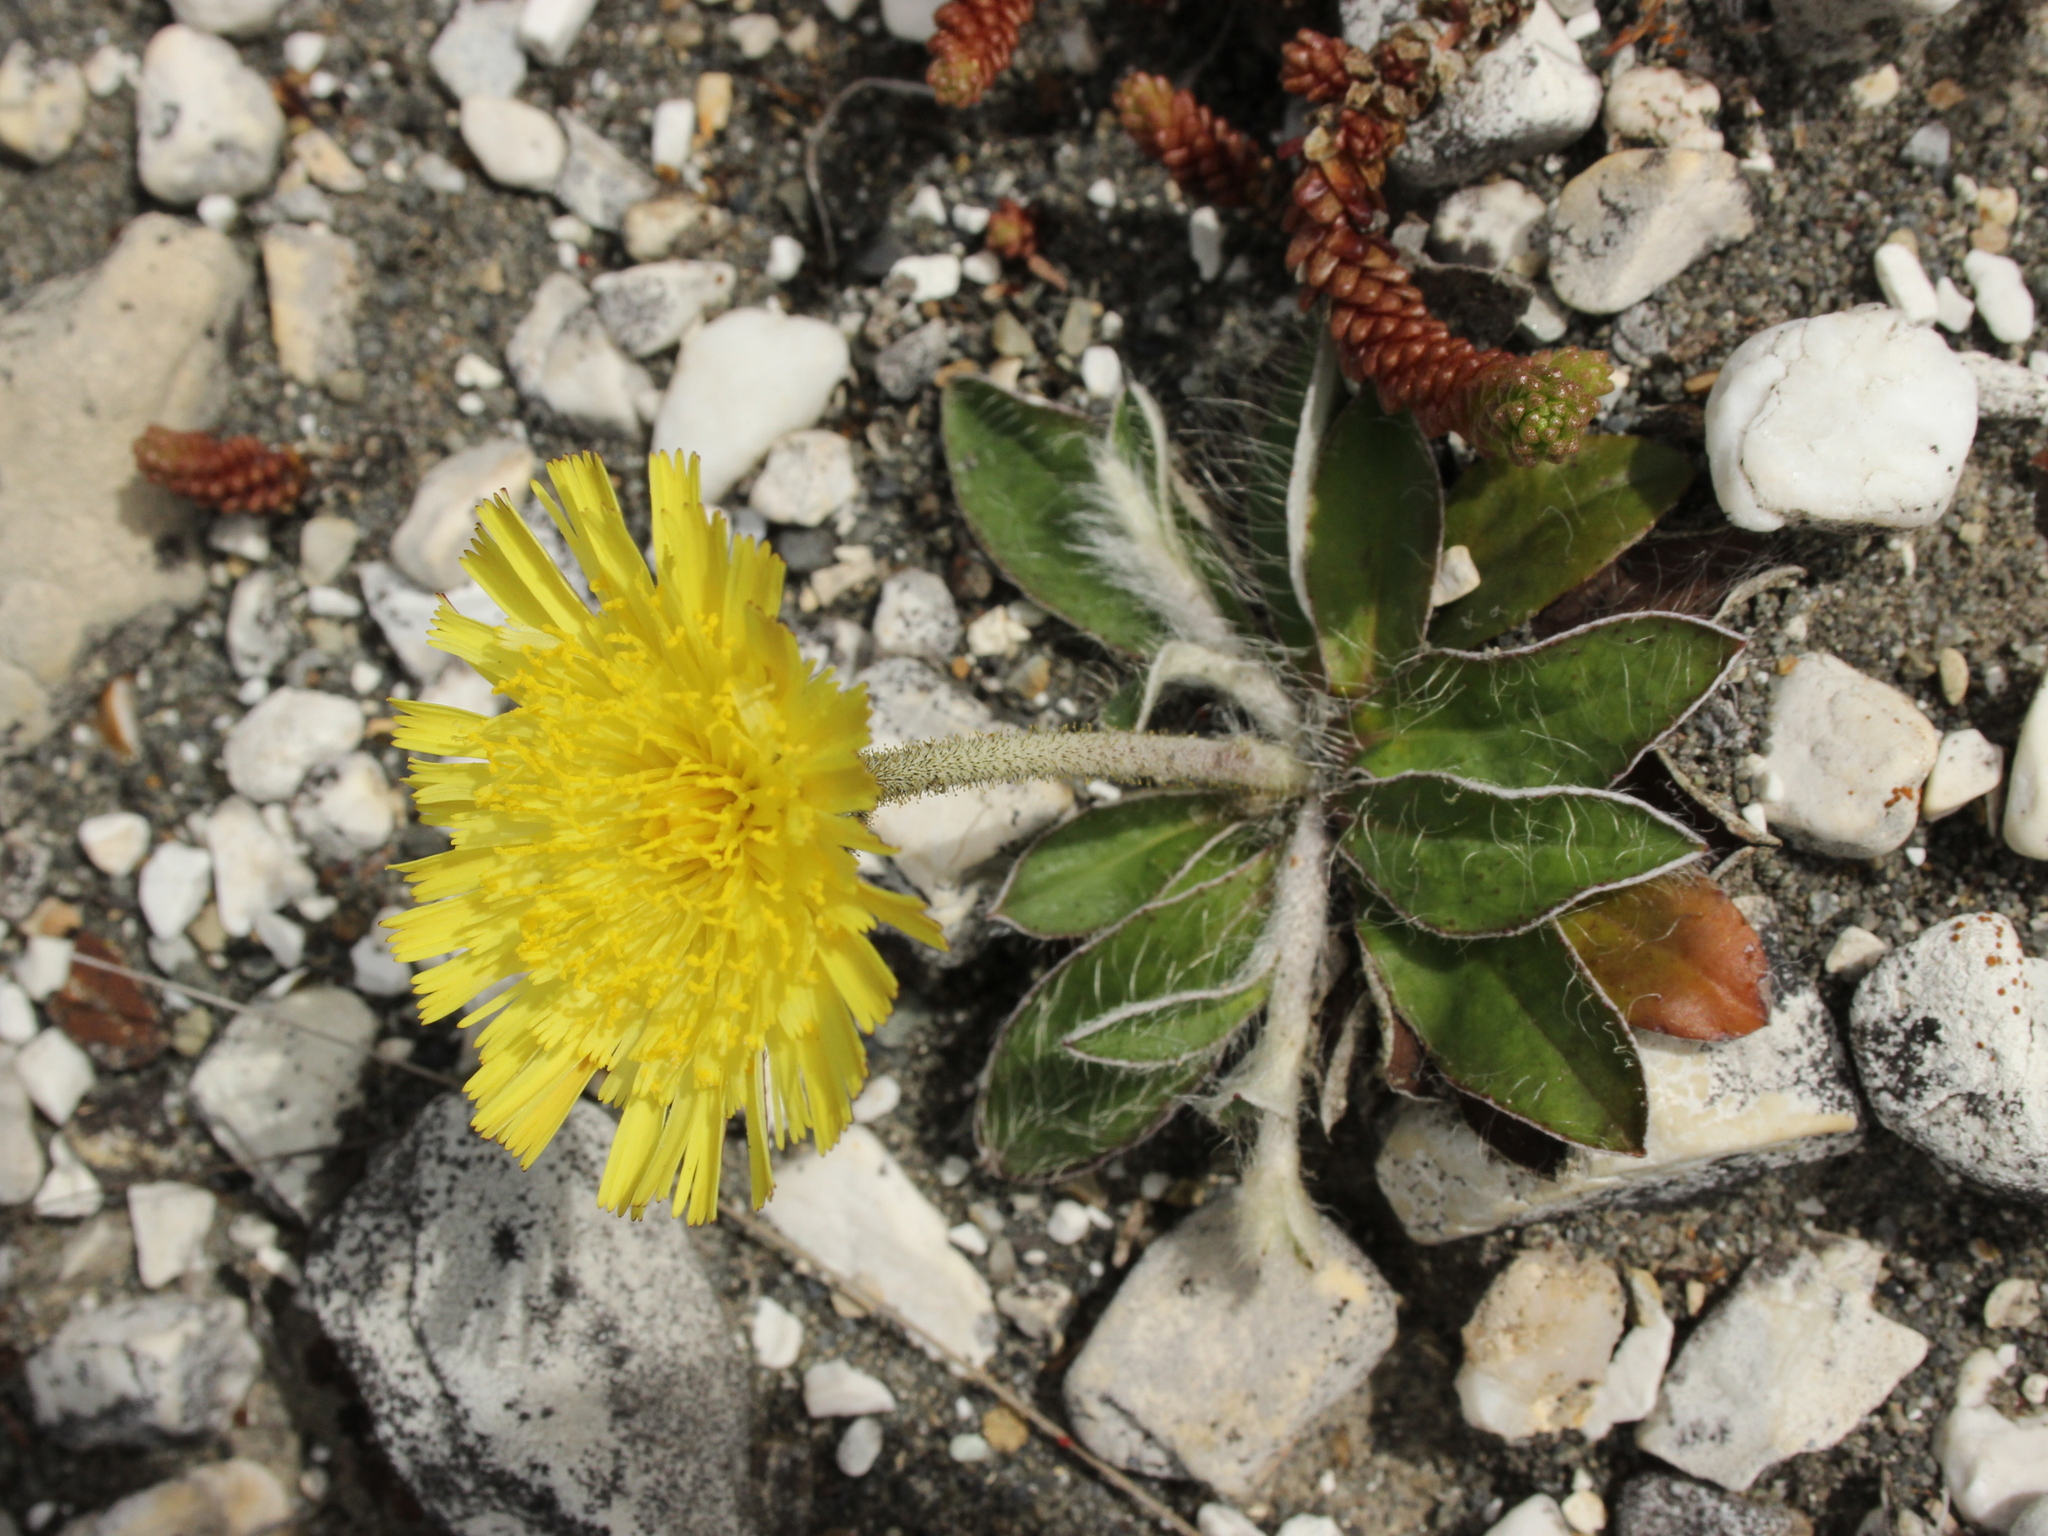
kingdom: Plantae
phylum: Tracheophyta
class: Magnoliopsida
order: Asterales
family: Asteraceae
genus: Pilosella
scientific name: Pilosella officinarum
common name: Mouse-ear hawkweed
